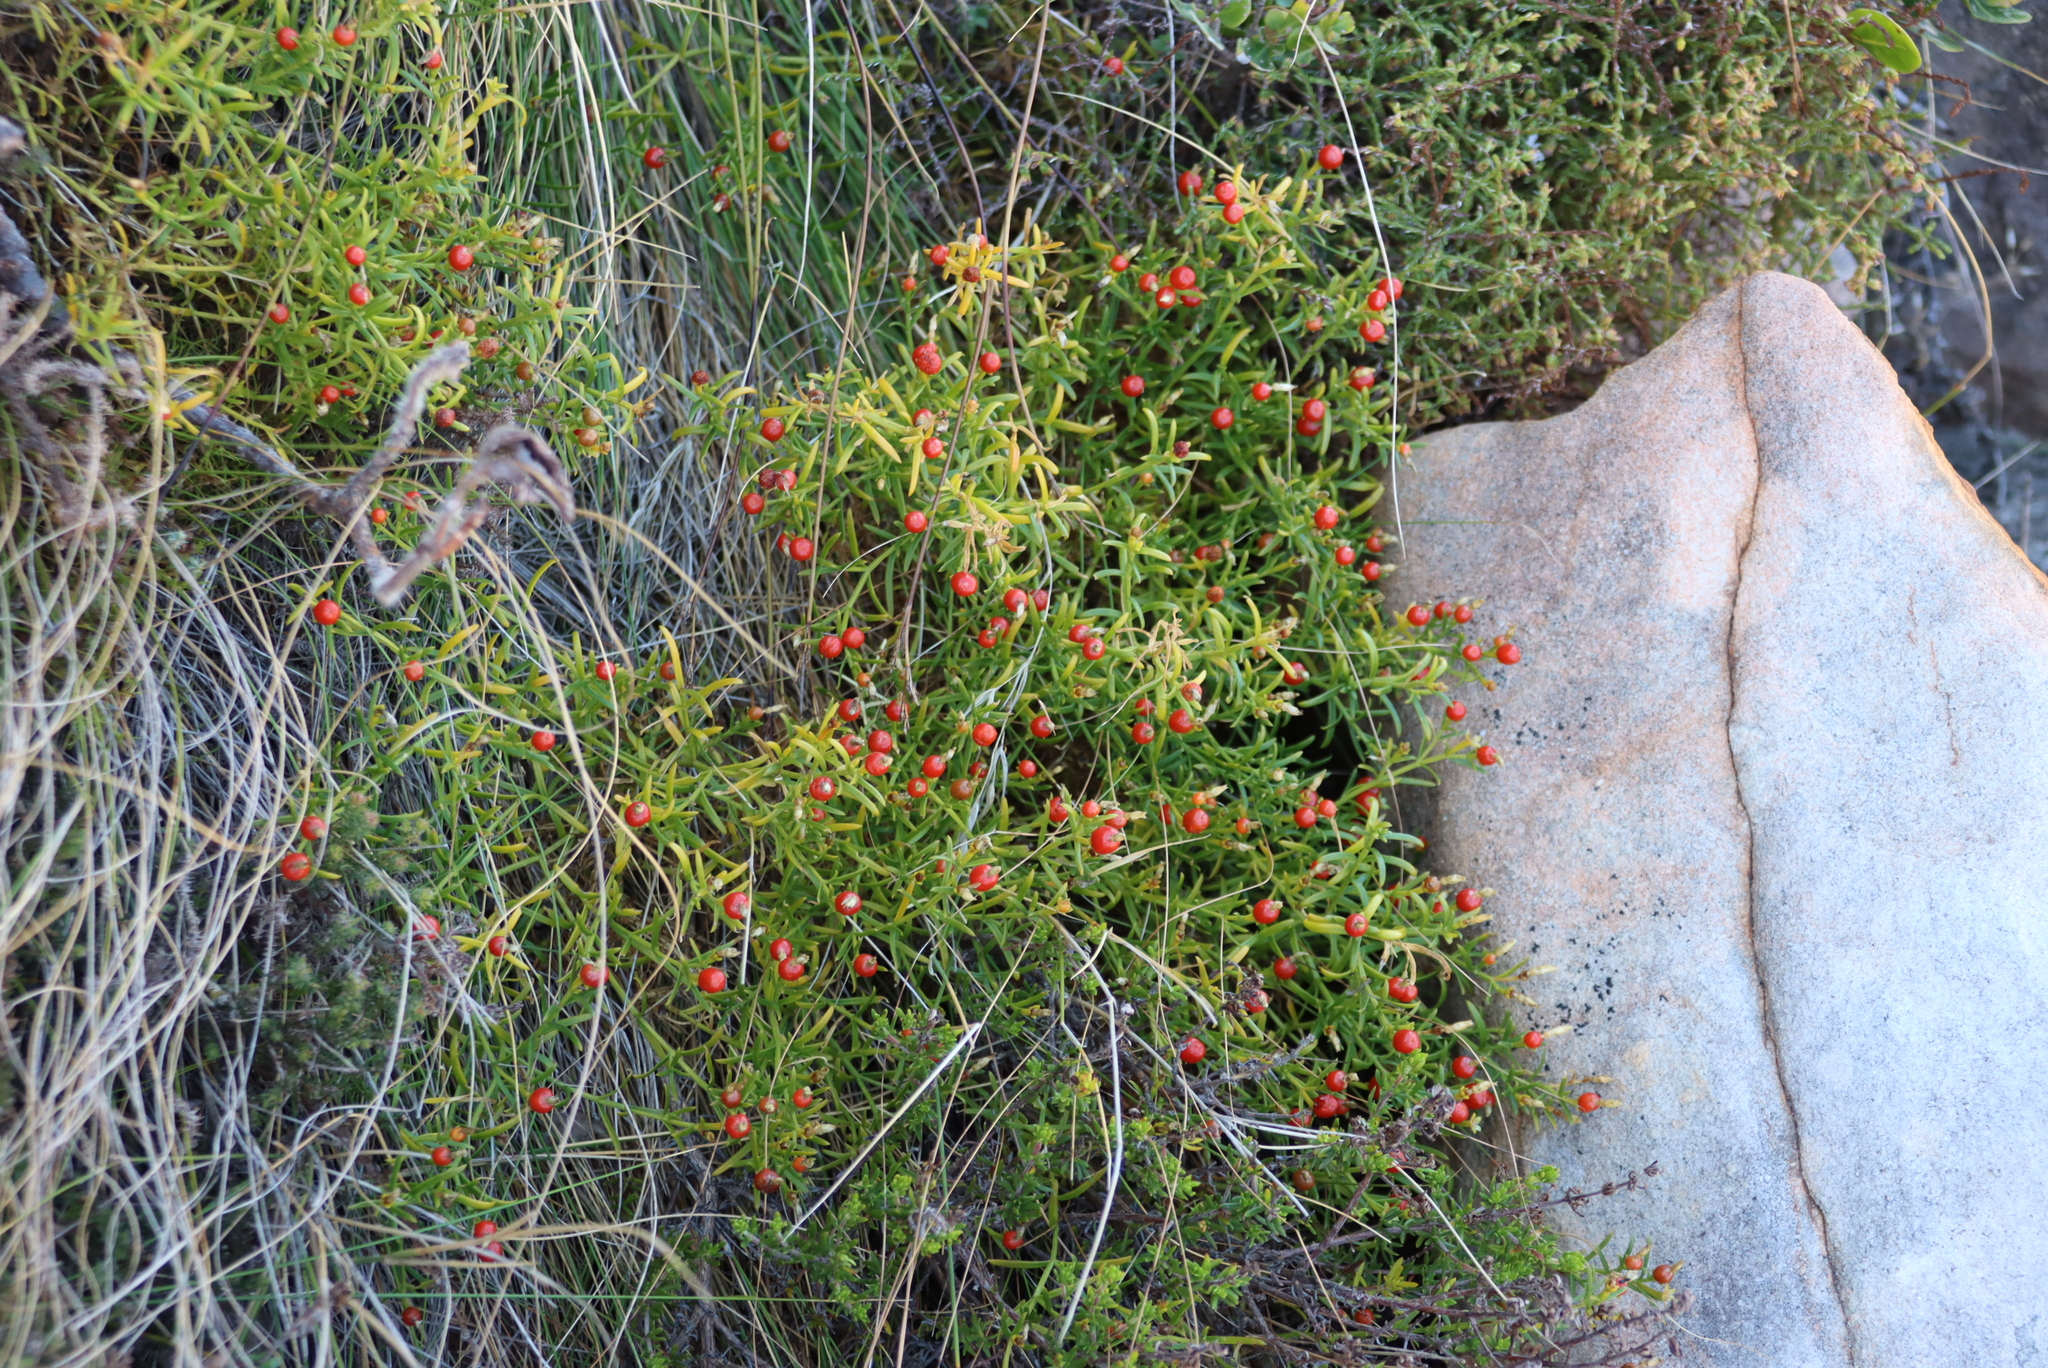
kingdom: Plantae
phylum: Tracheophyta
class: Magnoliopsida
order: Gentianales
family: Gentianaceae
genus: Chironia
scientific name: Chironia baccifera
